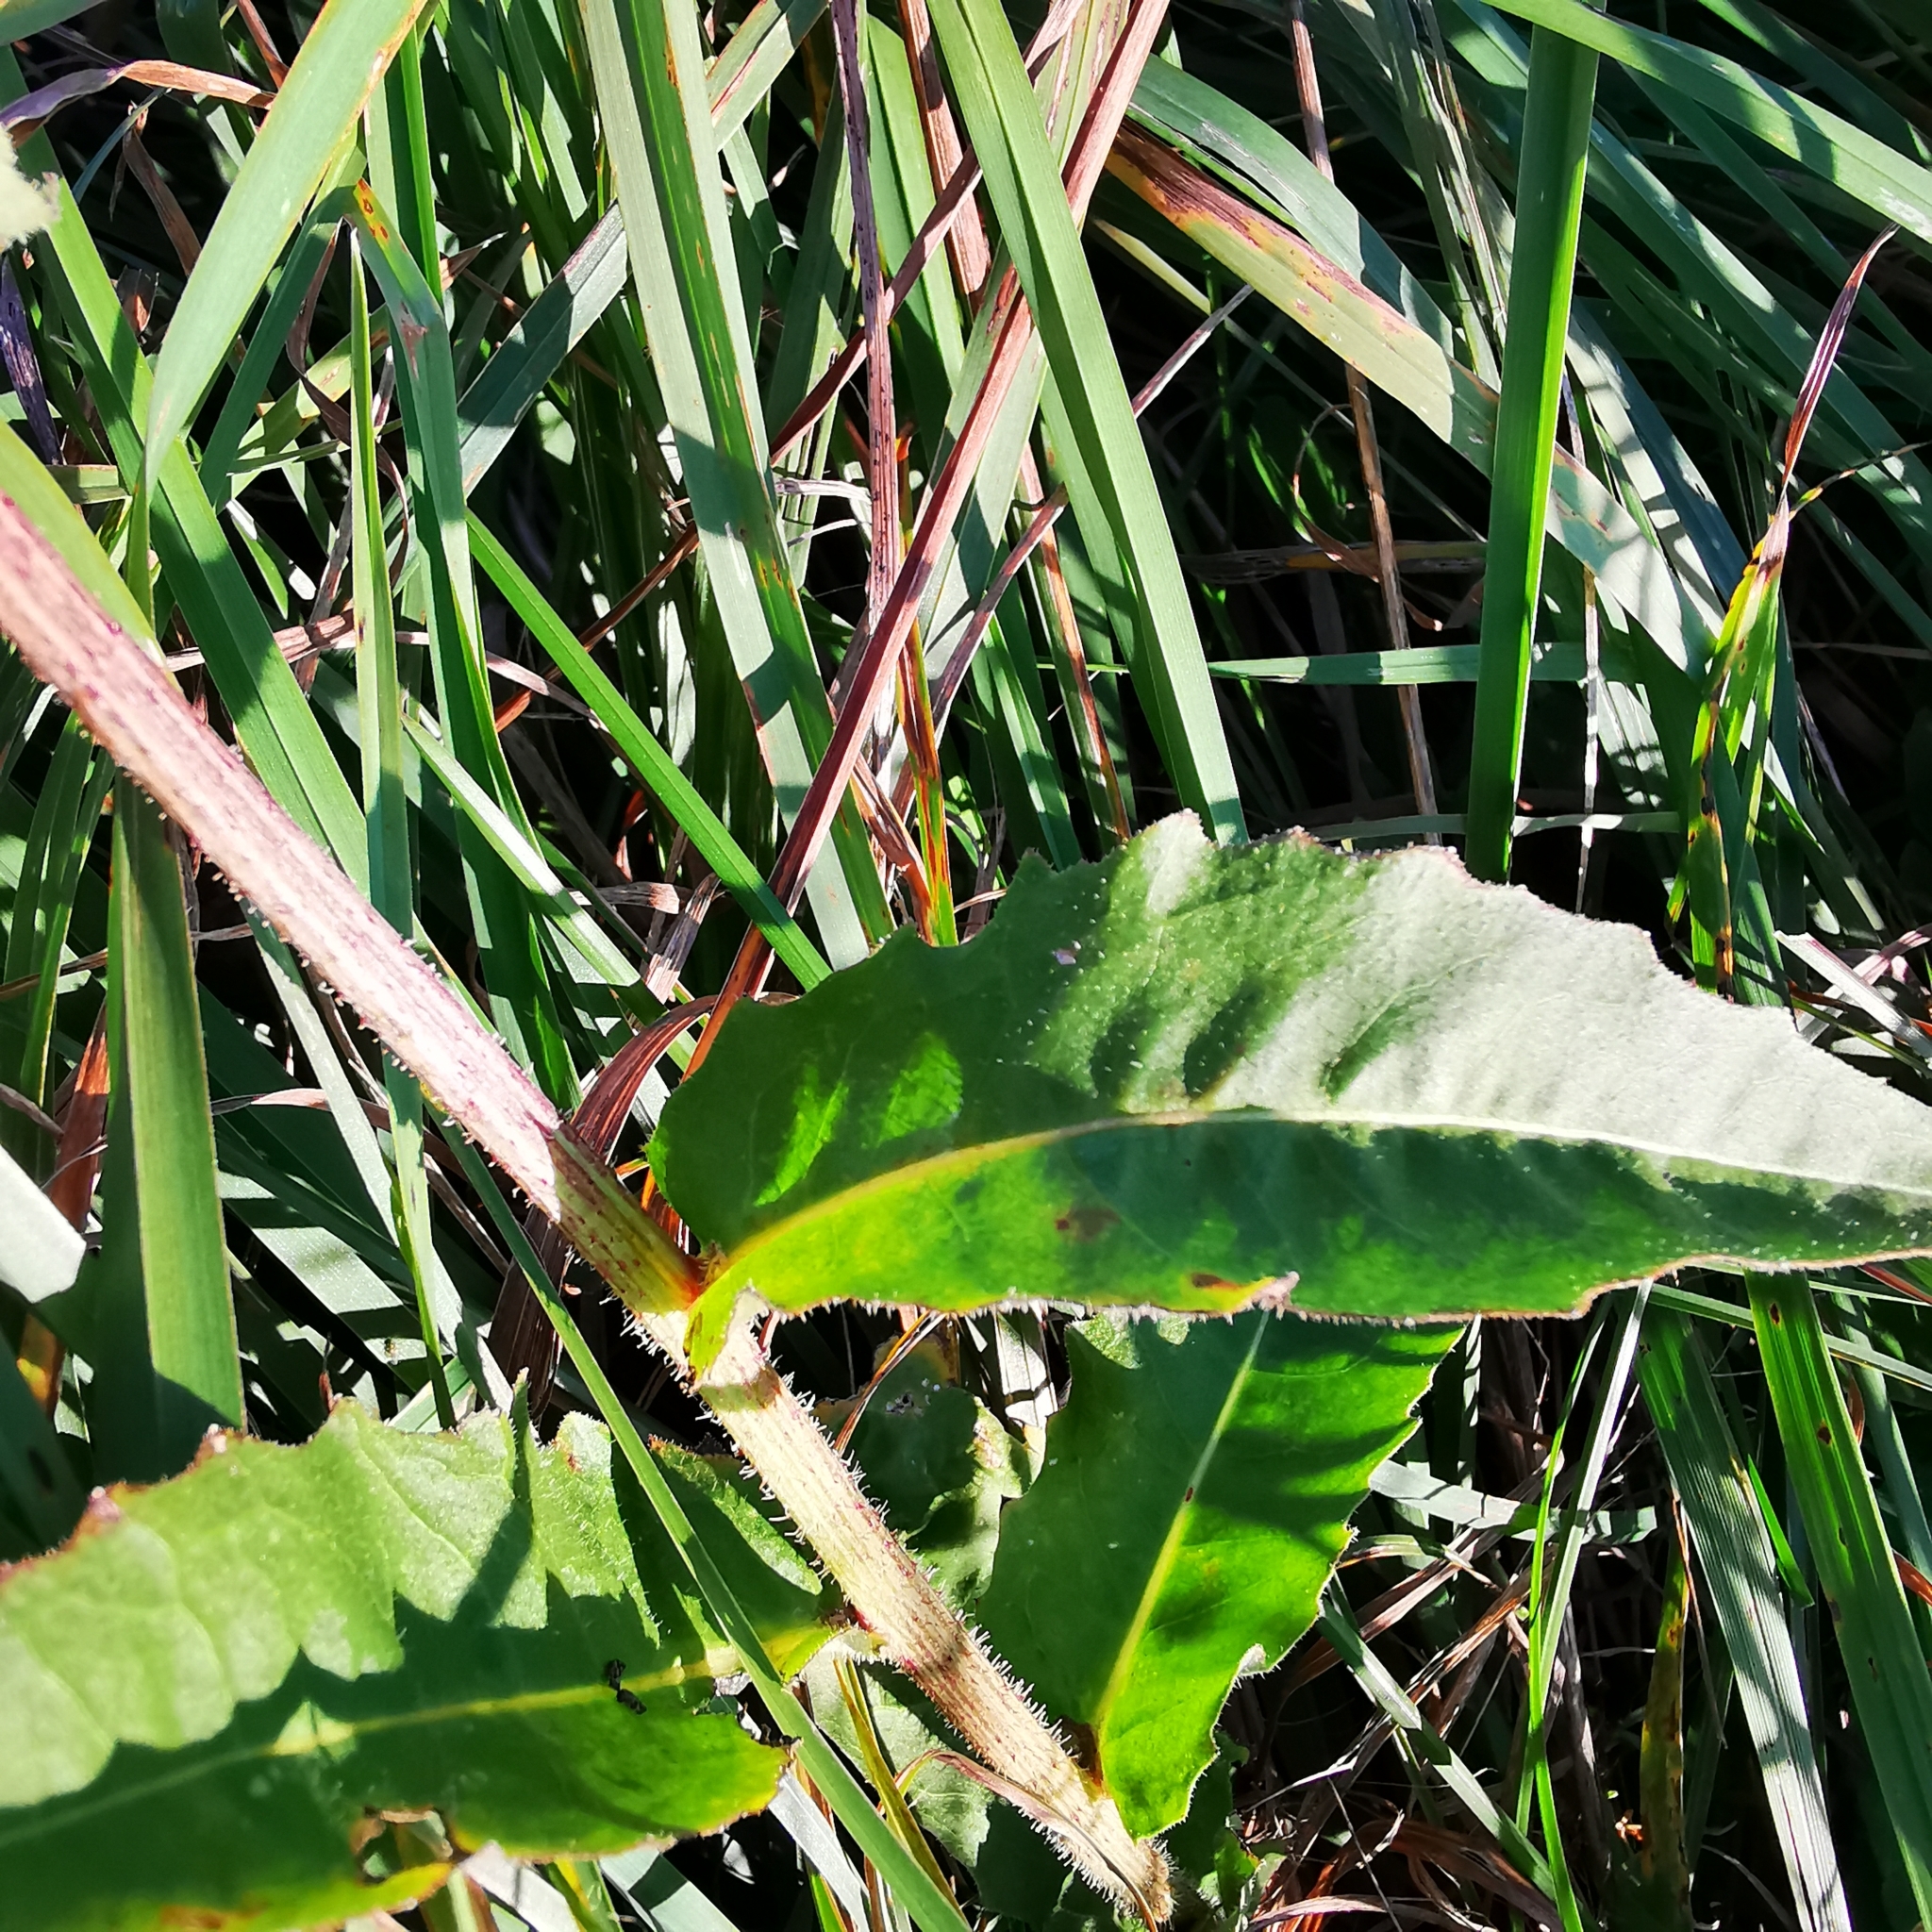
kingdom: Plantae
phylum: Tracheophyta
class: Magnoliopsida
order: Asterales
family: Asteraceae
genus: Picris
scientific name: Picris hieracioides
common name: Hawkweed oxtongue
